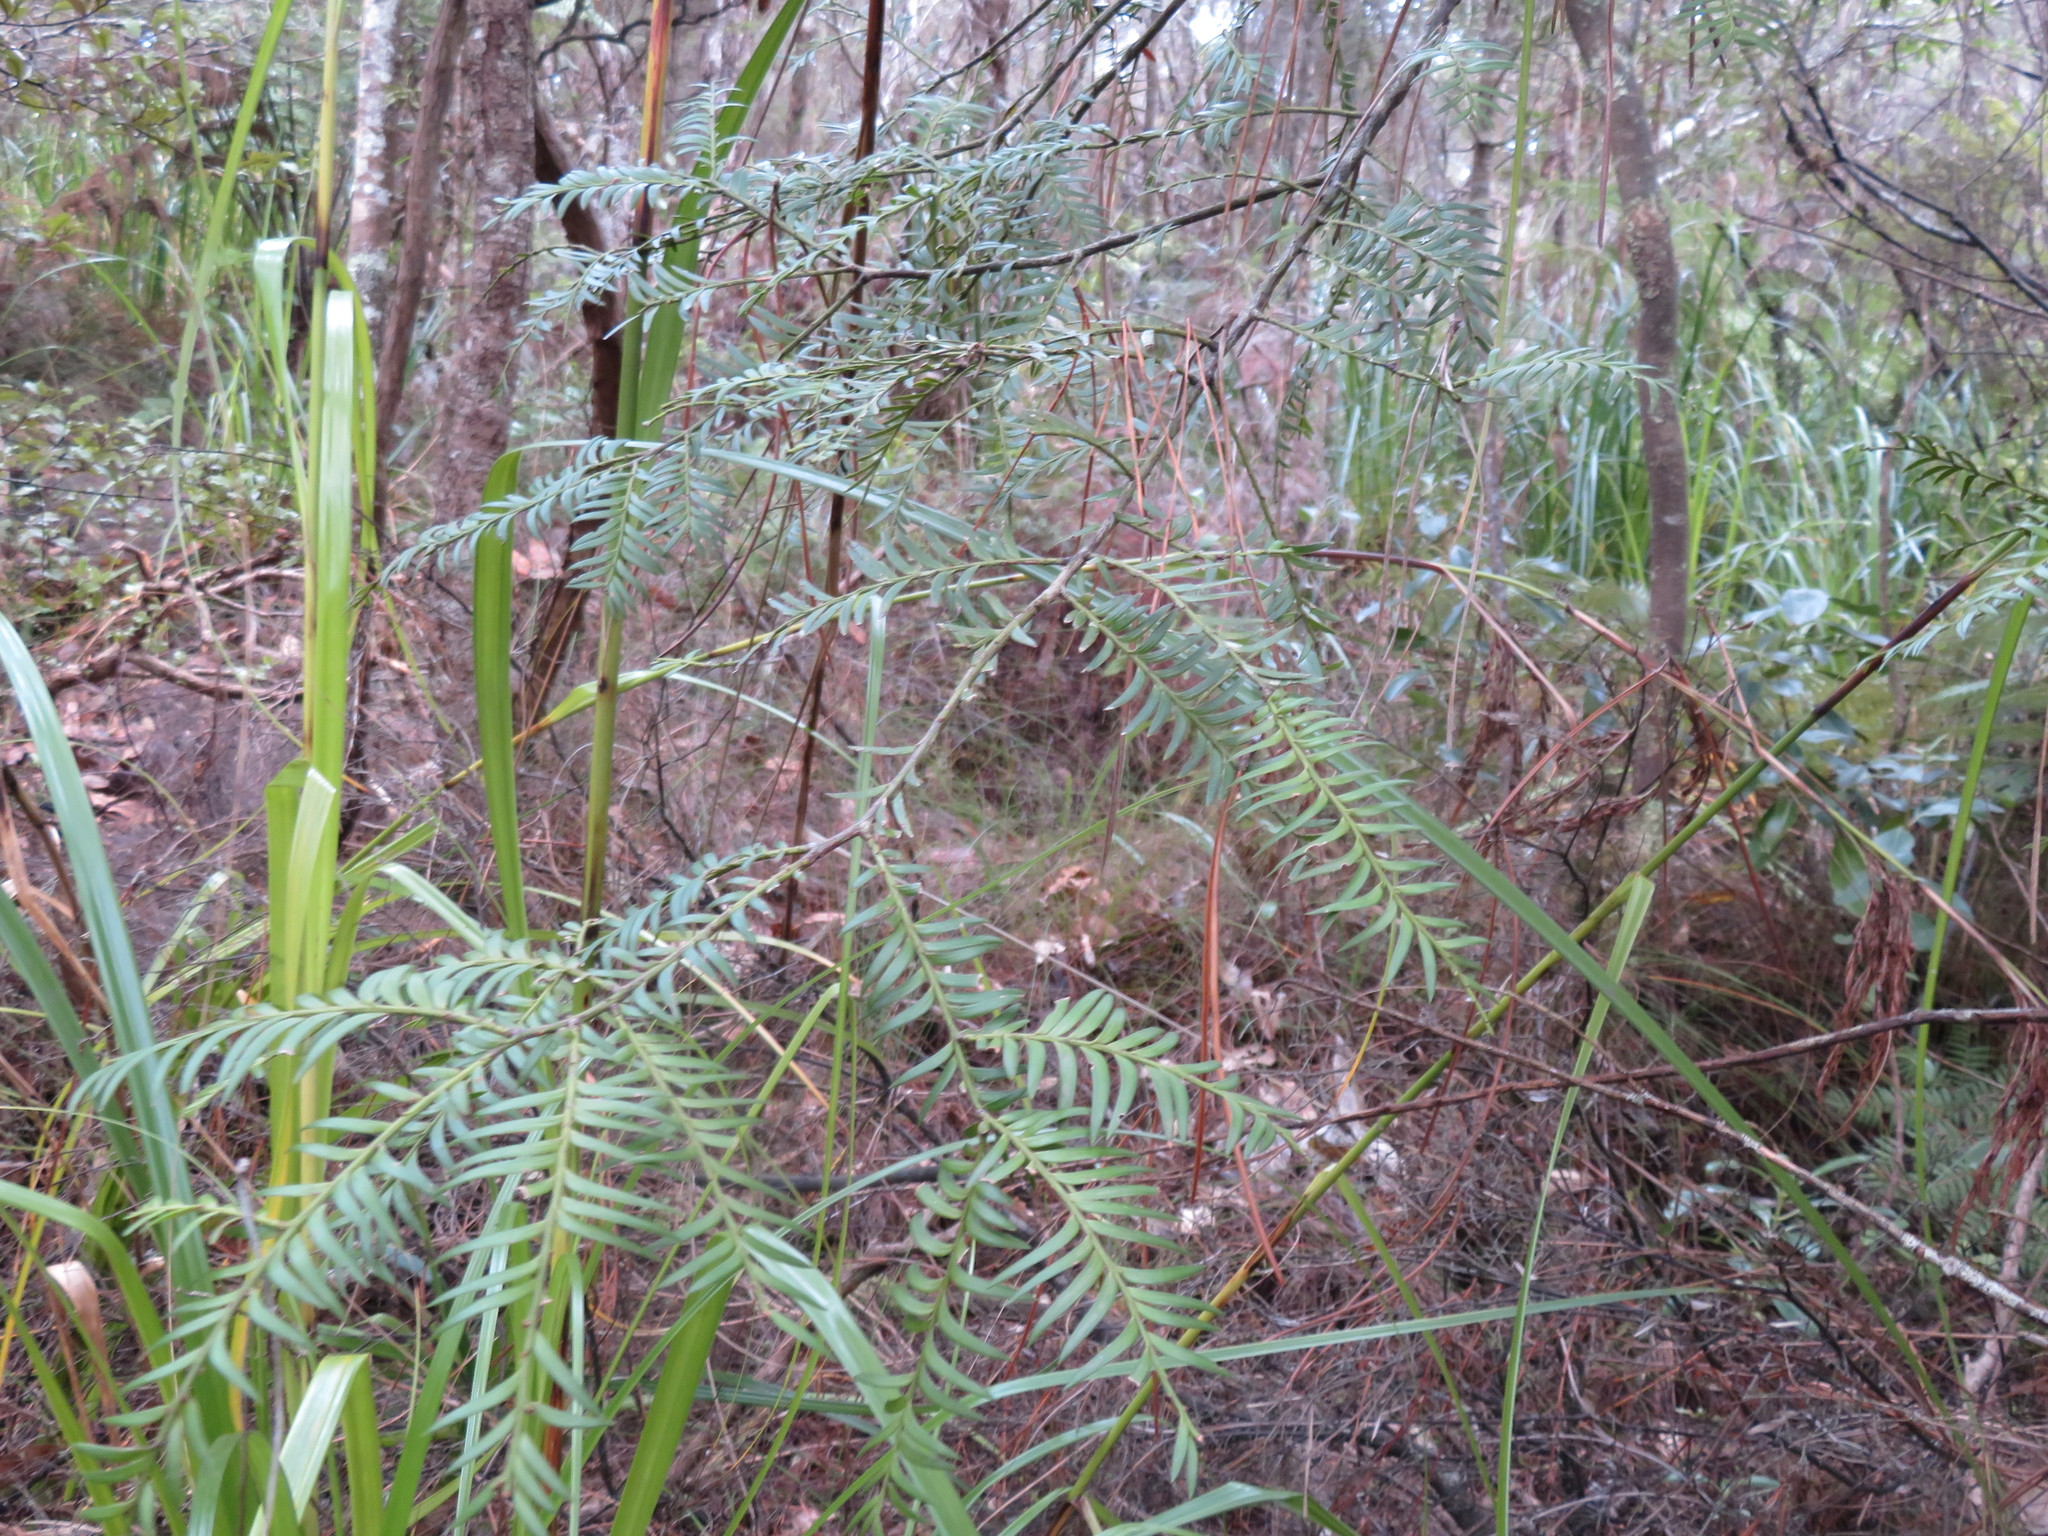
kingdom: Plantae
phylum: Tracheophyta
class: Pinopsida
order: Pinales
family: Podocarpaceae
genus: Prumnopitys
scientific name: Prumnopitys ferruginea
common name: Brown pine
